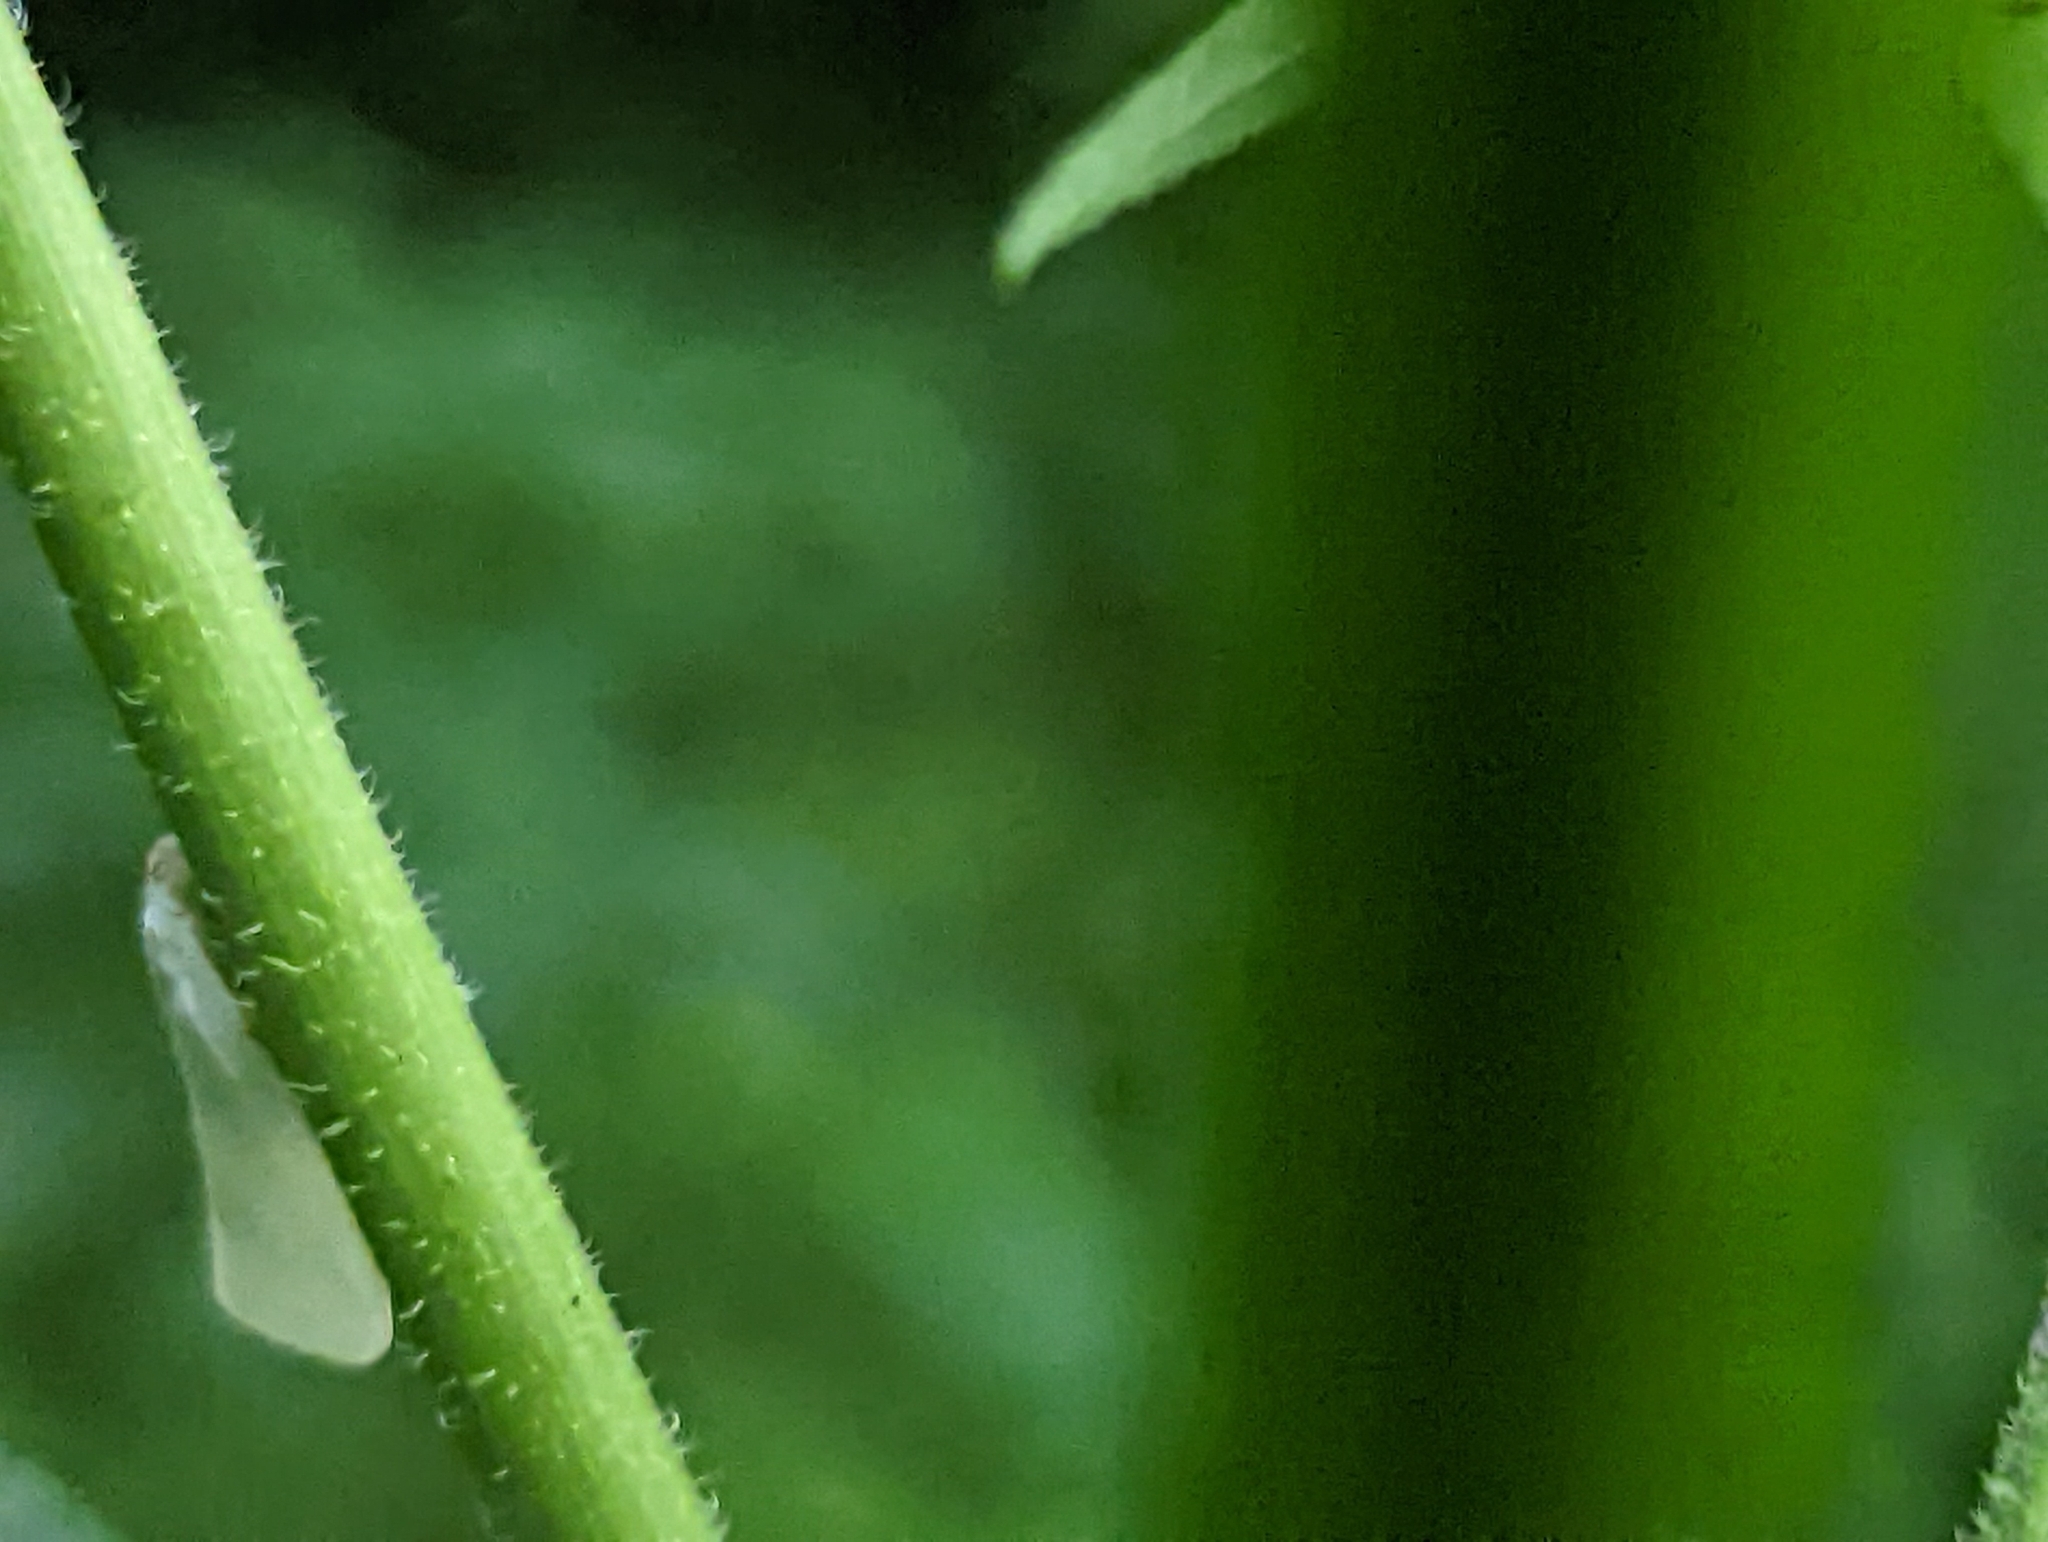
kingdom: Animalia
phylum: Arthropoda
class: Insecta
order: Hemiptera
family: Flatidae
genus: Flatormenis
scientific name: Flatormenis proxima
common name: Northern flatid planthopper
